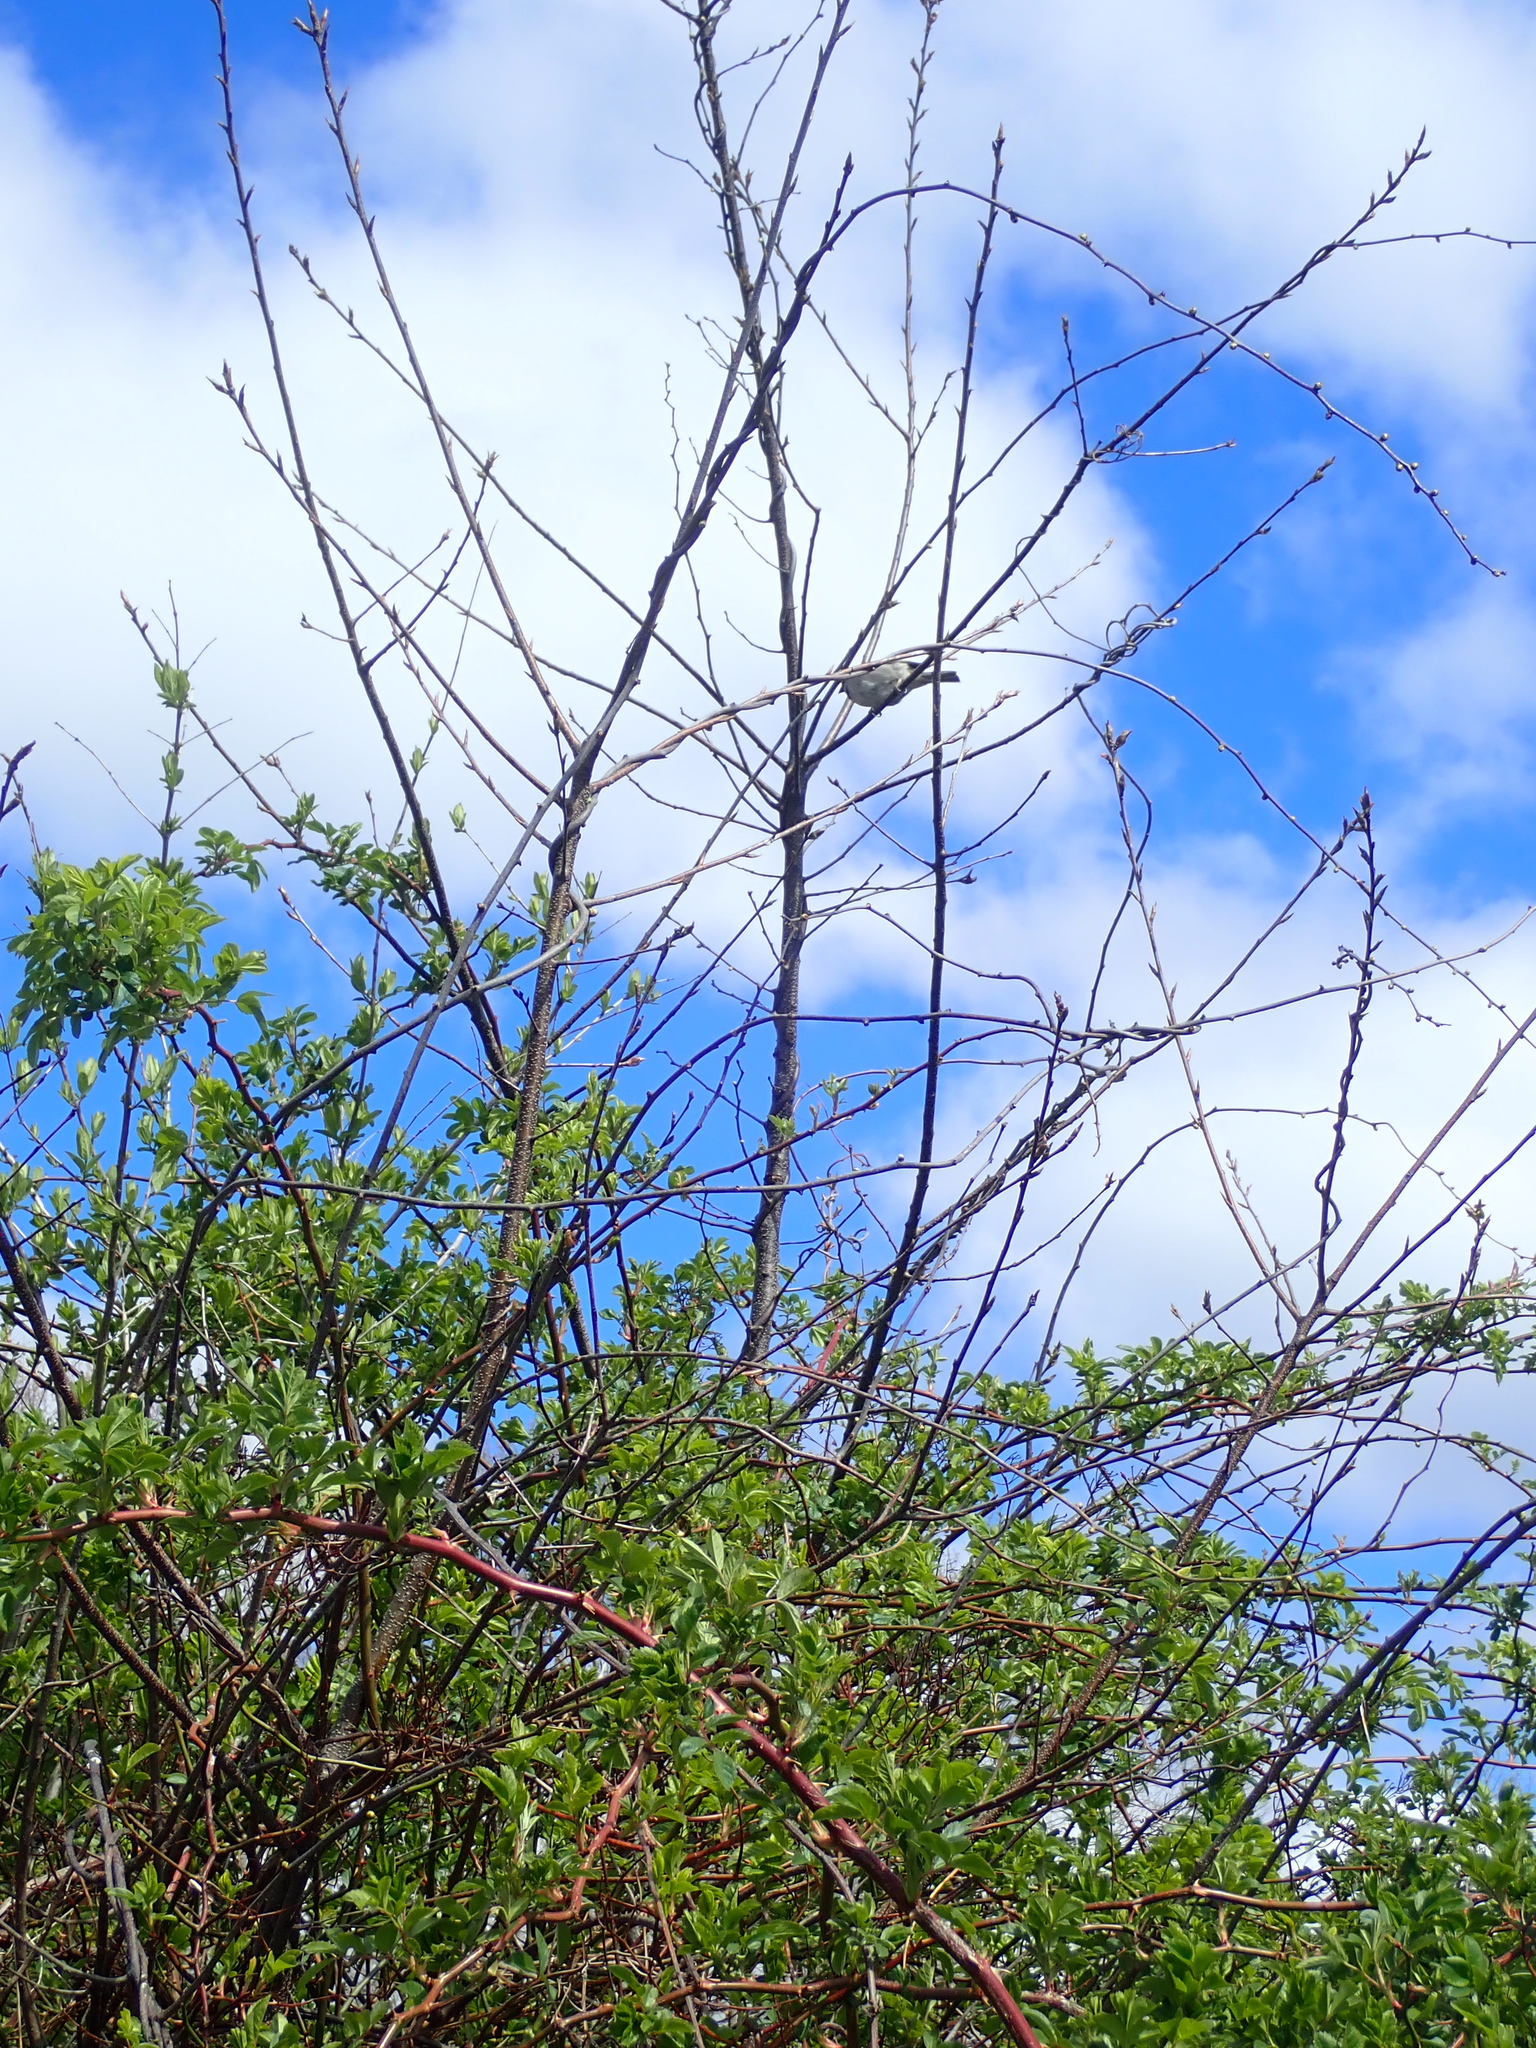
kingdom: Animalia
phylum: Chordata
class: Aves
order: Passeriformes
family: Passeridae
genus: Passer
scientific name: Passer domesticus
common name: House sparrow
